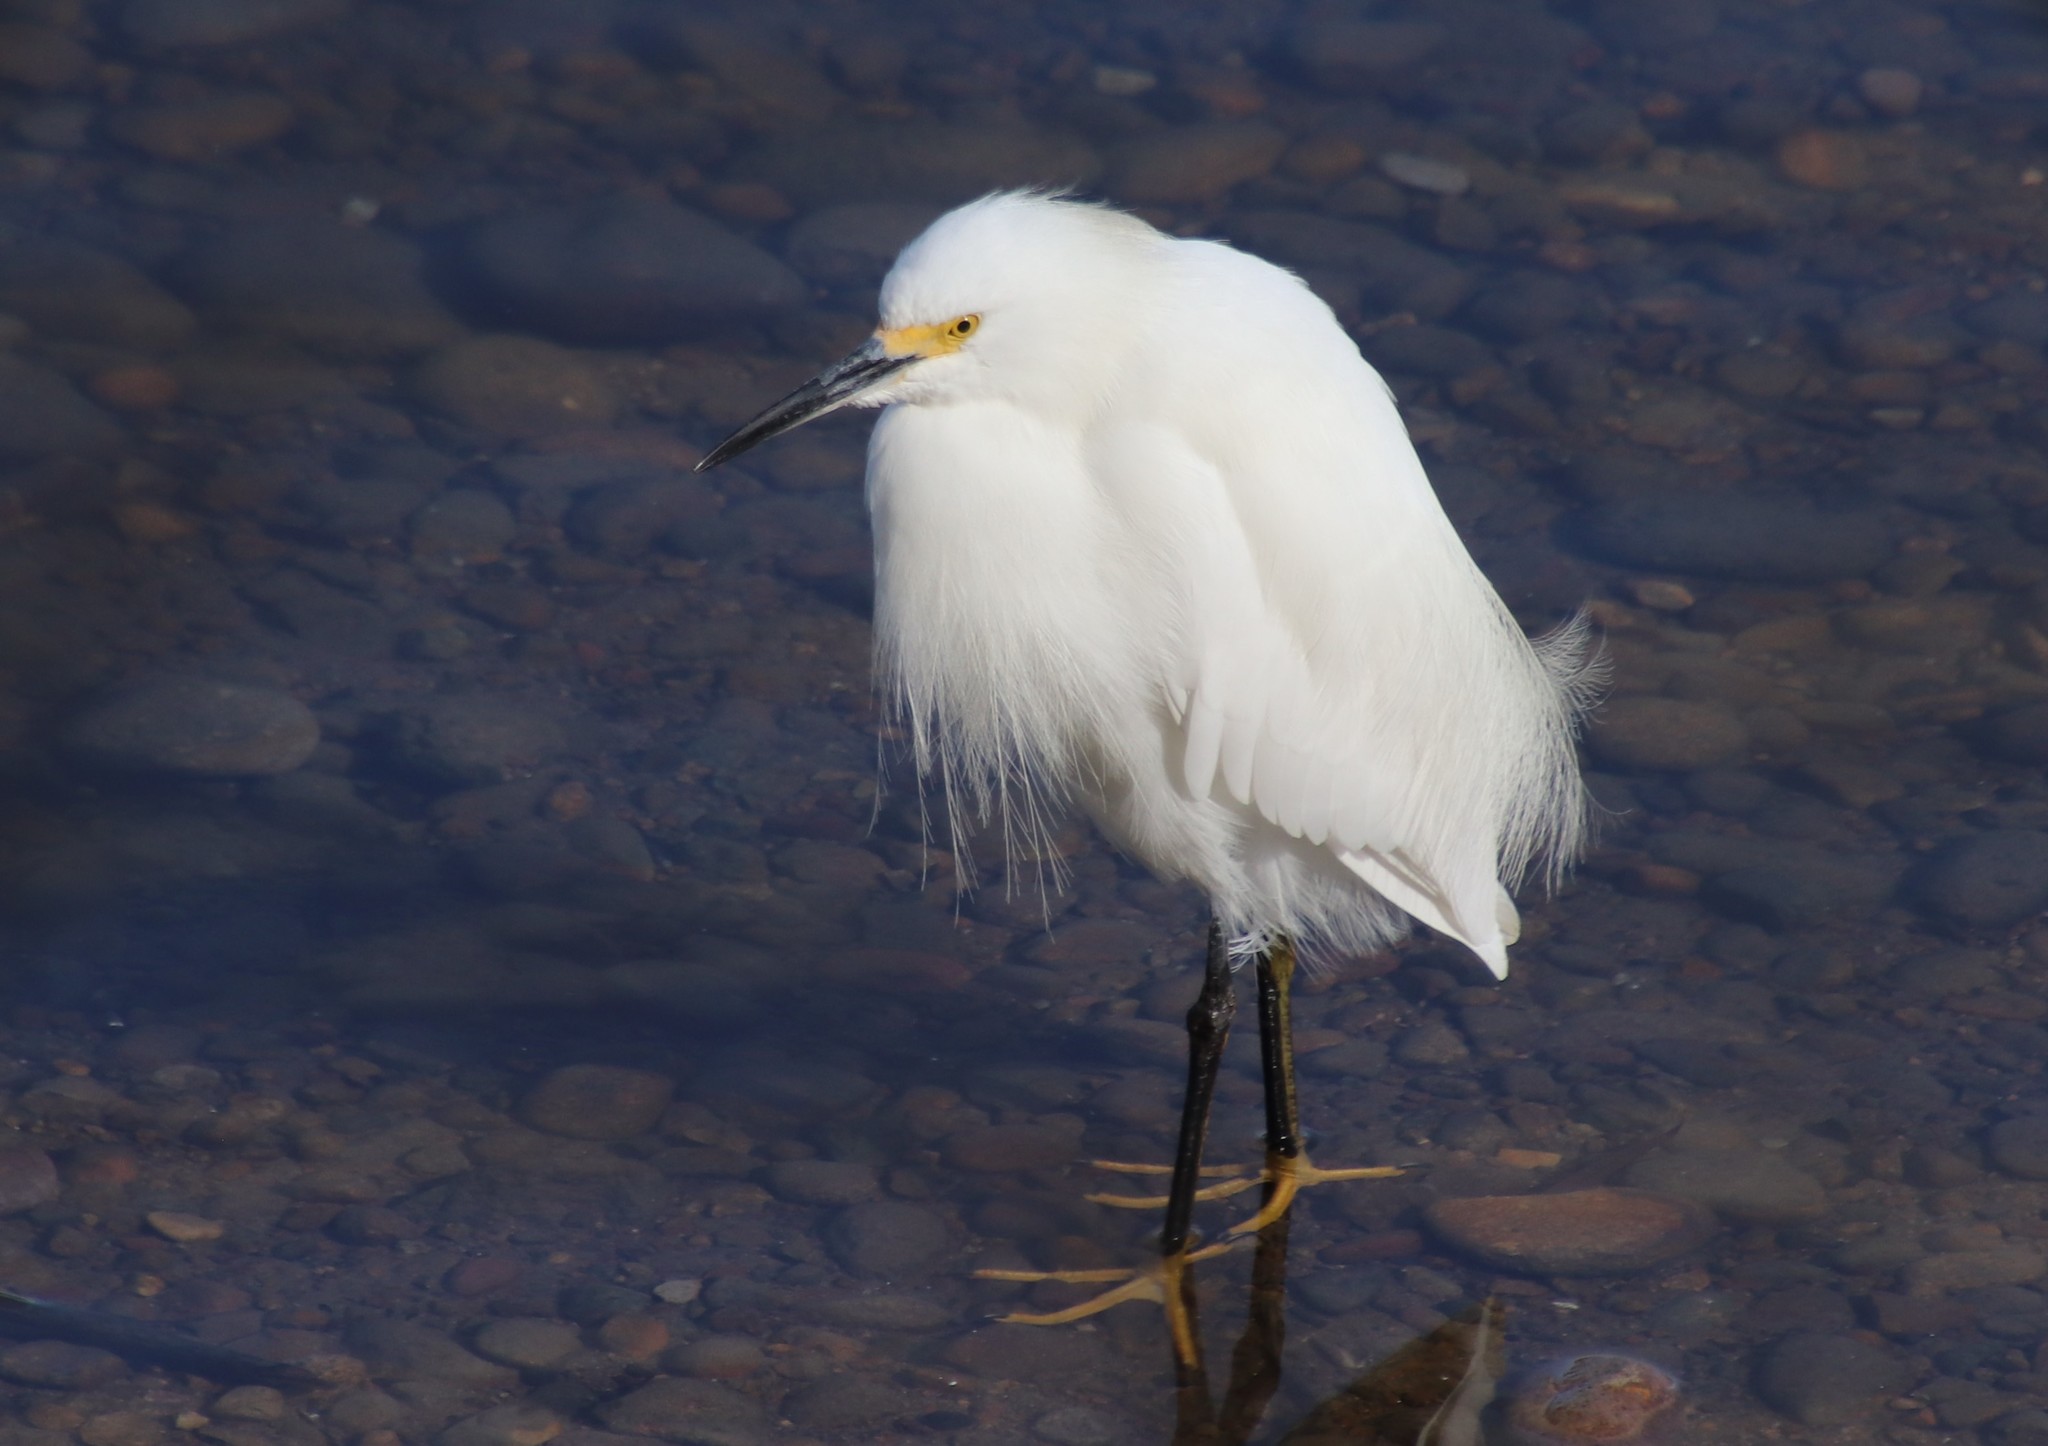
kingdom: Animalia
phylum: Chordata
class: Aves
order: Pelecaniformes
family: Ardeidae
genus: Egretta
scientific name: Egretta thula
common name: Snowy egret
